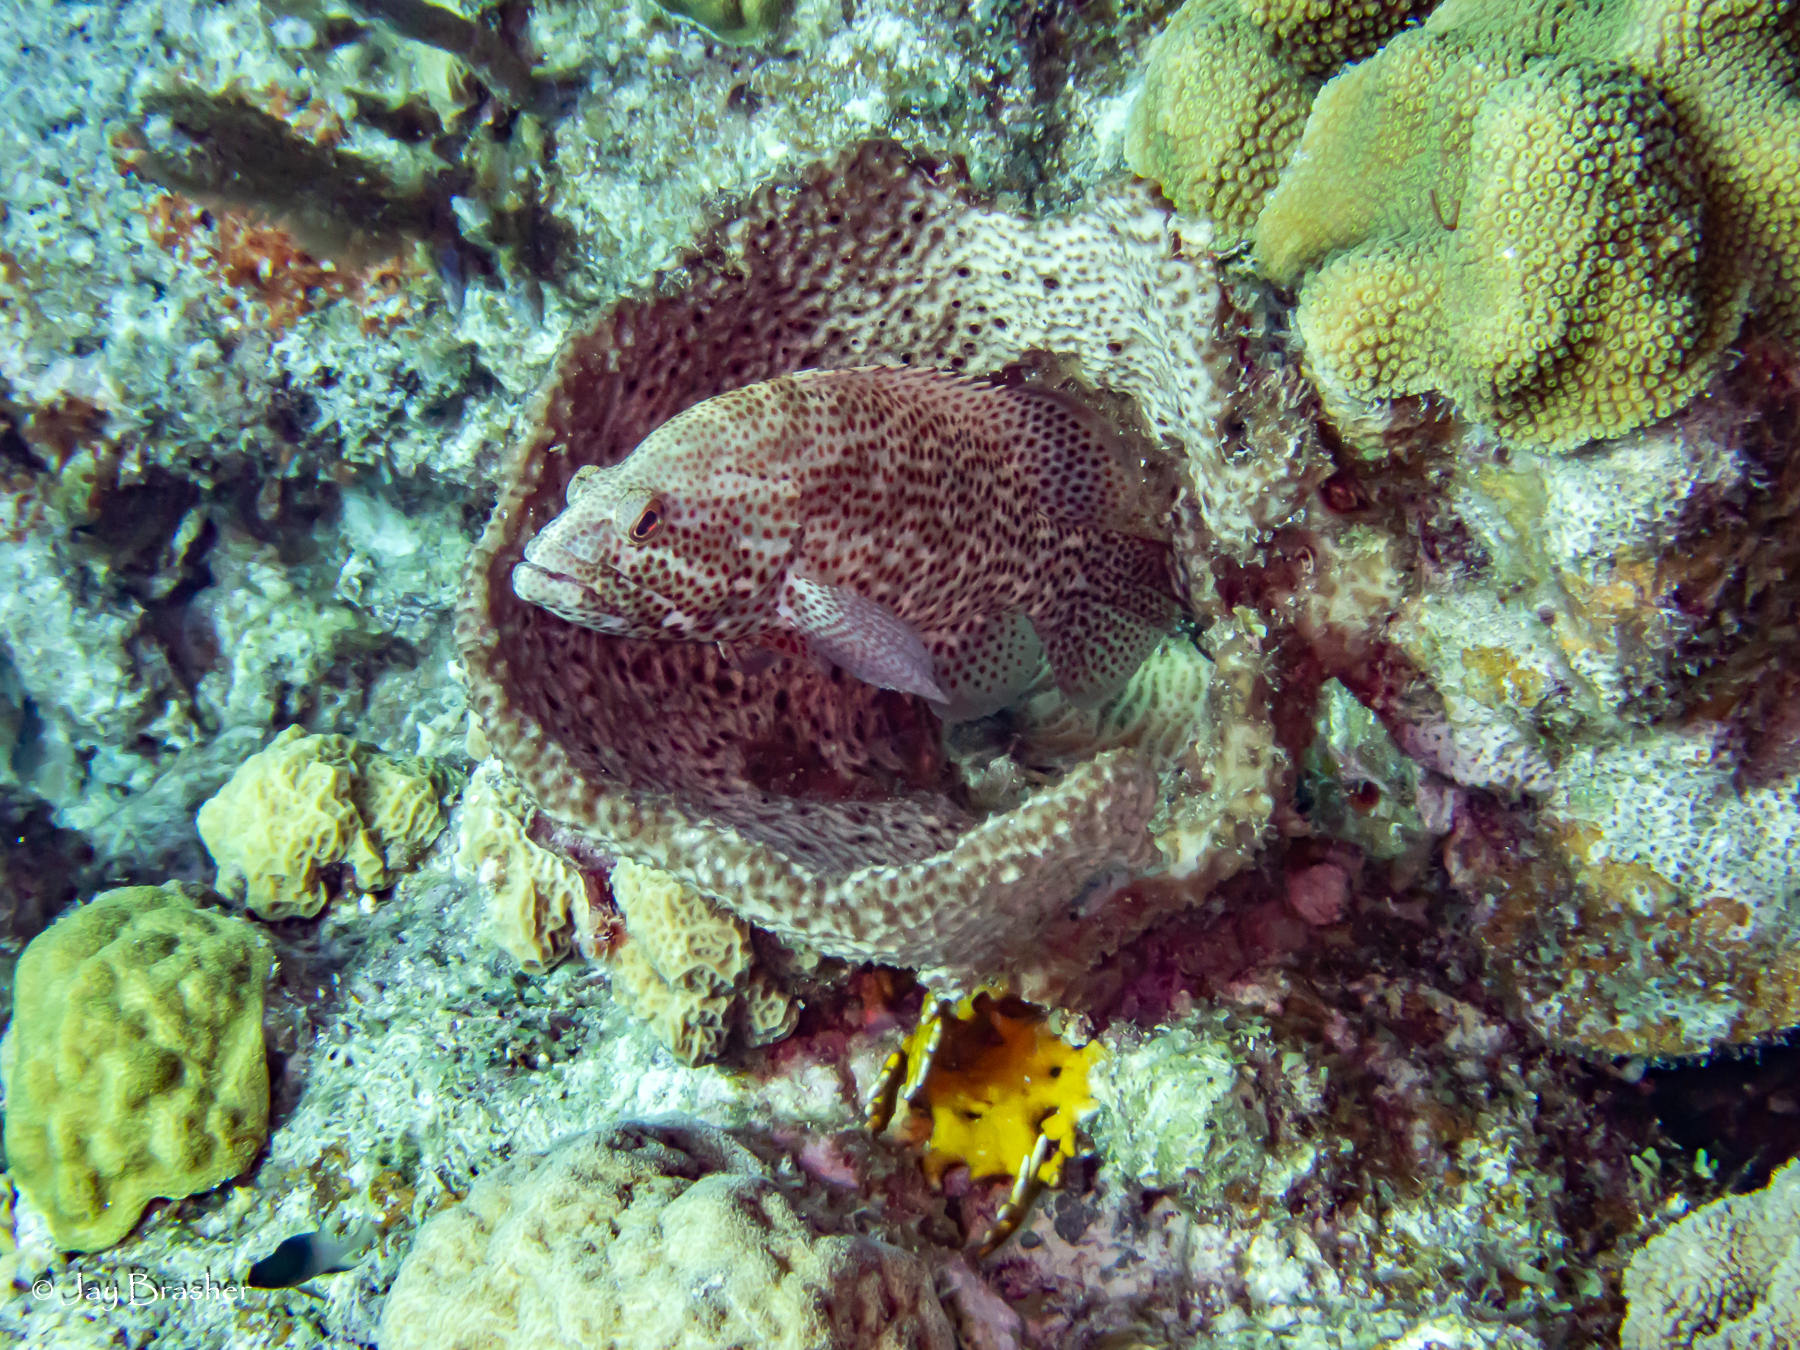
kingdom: Animalia
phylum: Chordata
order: Perciformes
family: Serranidae
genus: Cephalopholis
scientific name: Cephalopholis cruentata
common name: Graysby
